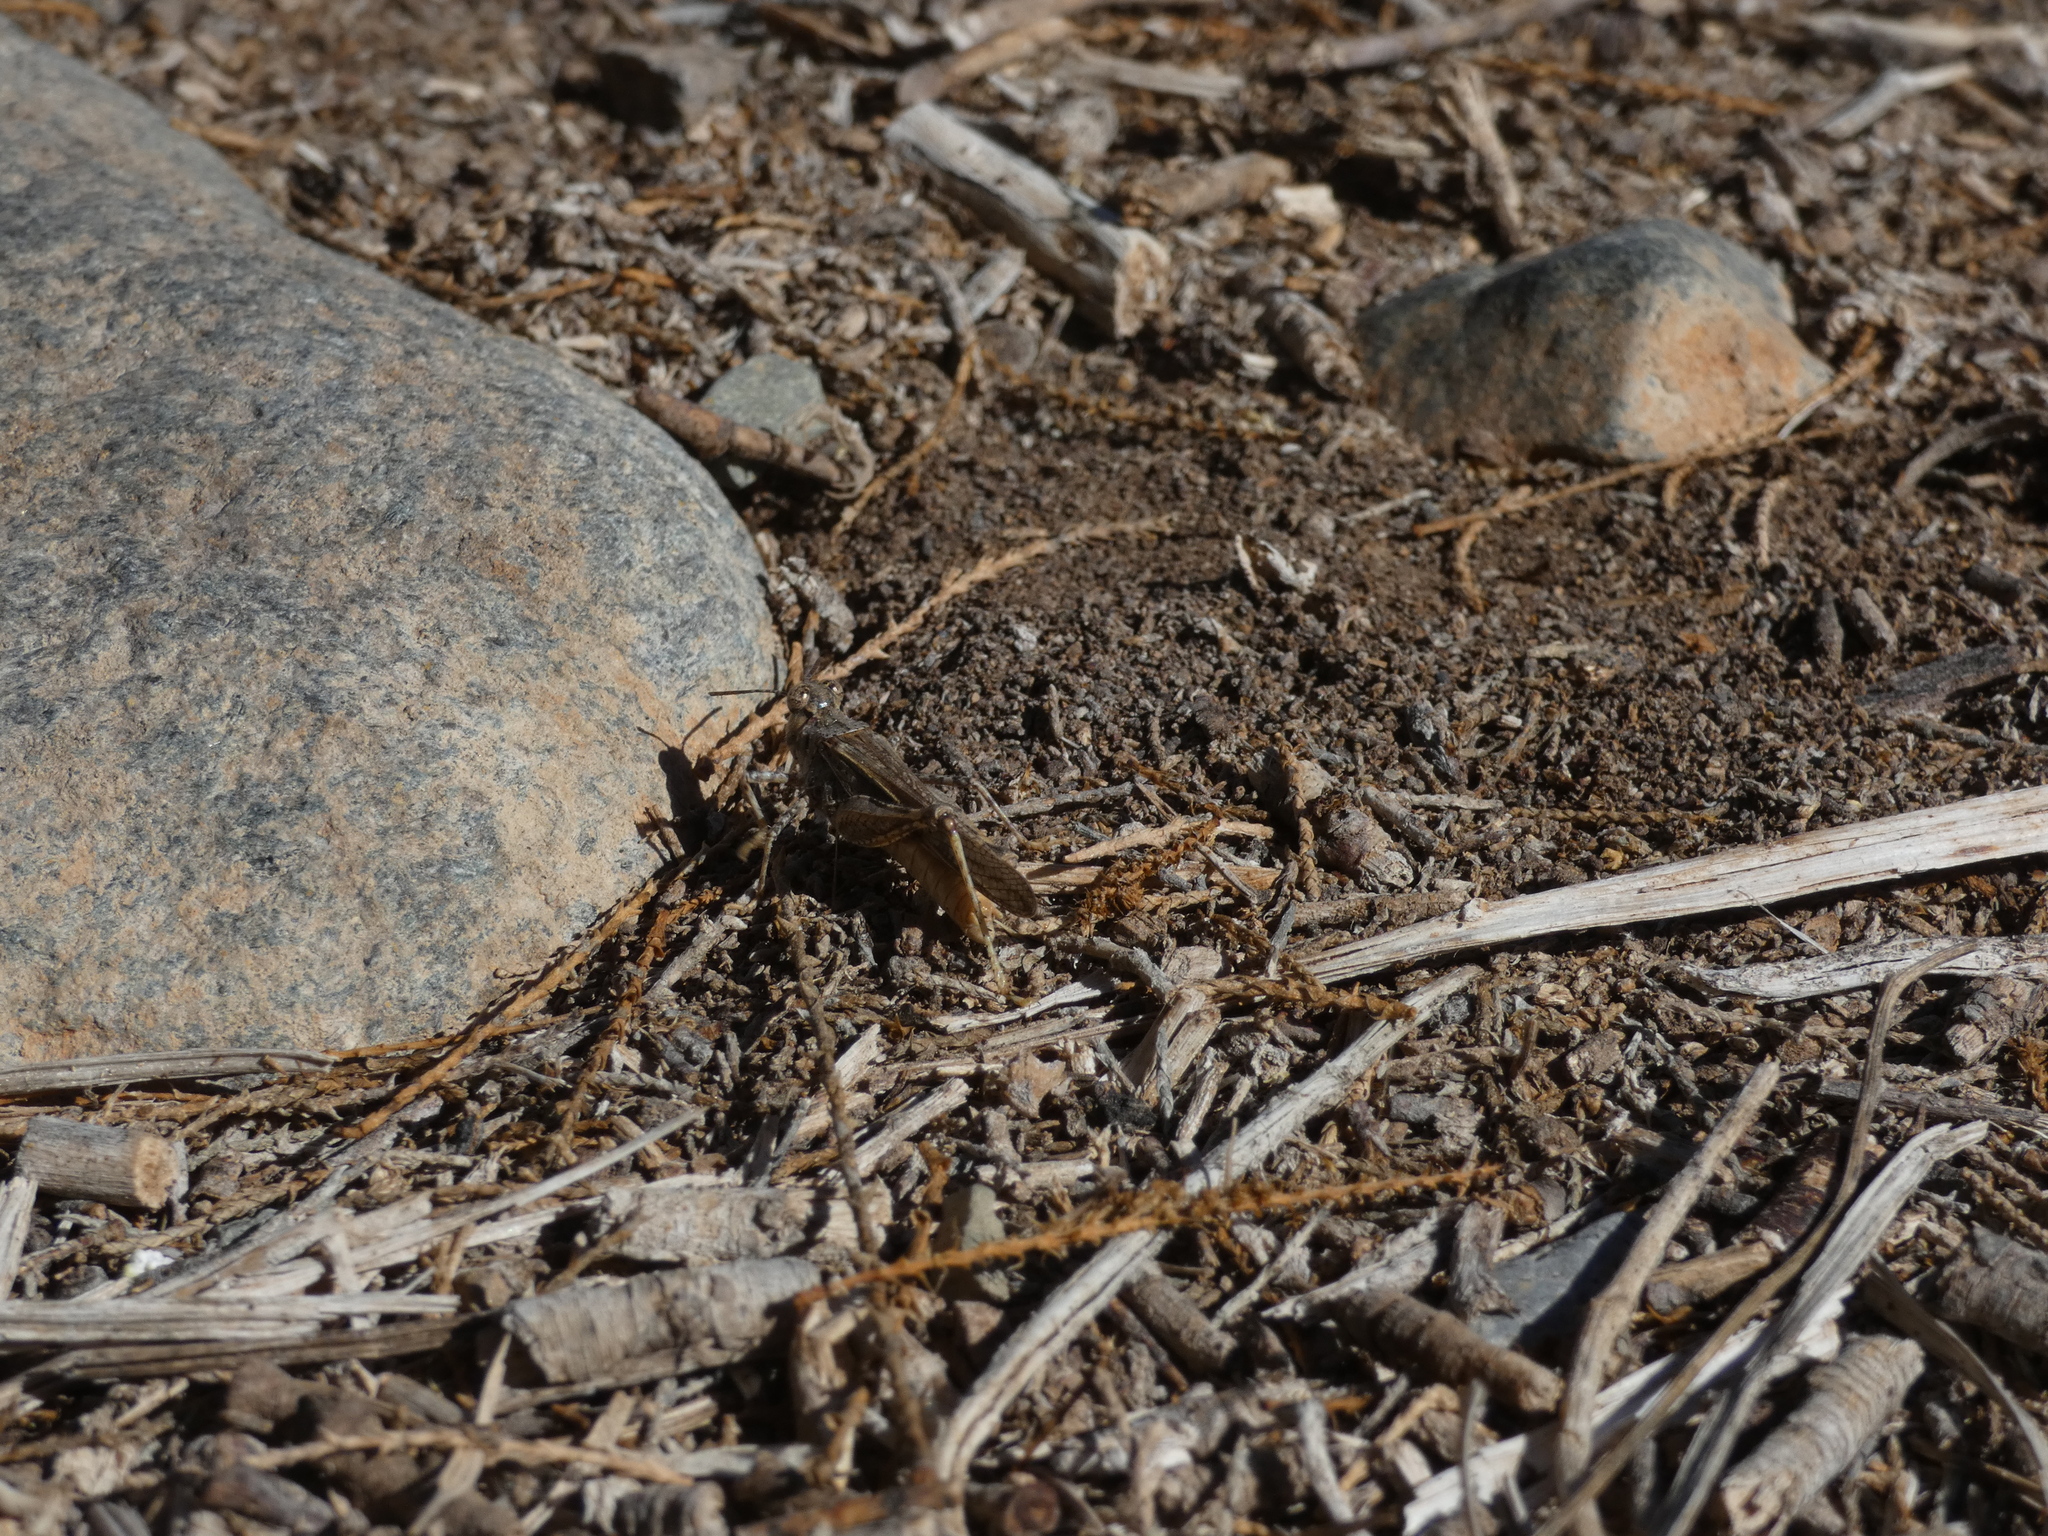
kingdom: Animalia
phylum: Arthropoda
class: Insecta
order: Orthoptera
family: Acrididae
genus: Acrotylus
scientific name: Acrotylus insubricus
